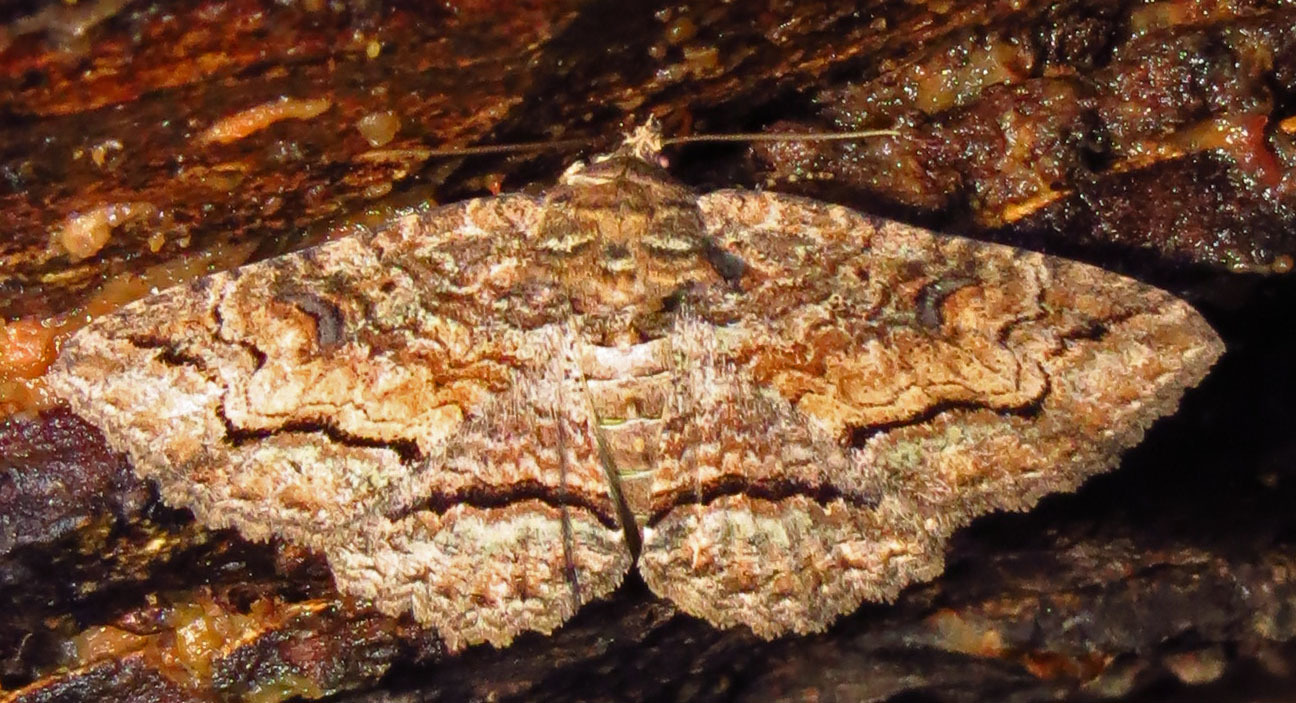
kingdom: Animalia
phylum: Arthropoda
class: Insecta
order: Lepidoptera
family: Erebidae
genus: Zale
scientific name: Zale galbanata
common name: Maple zale
